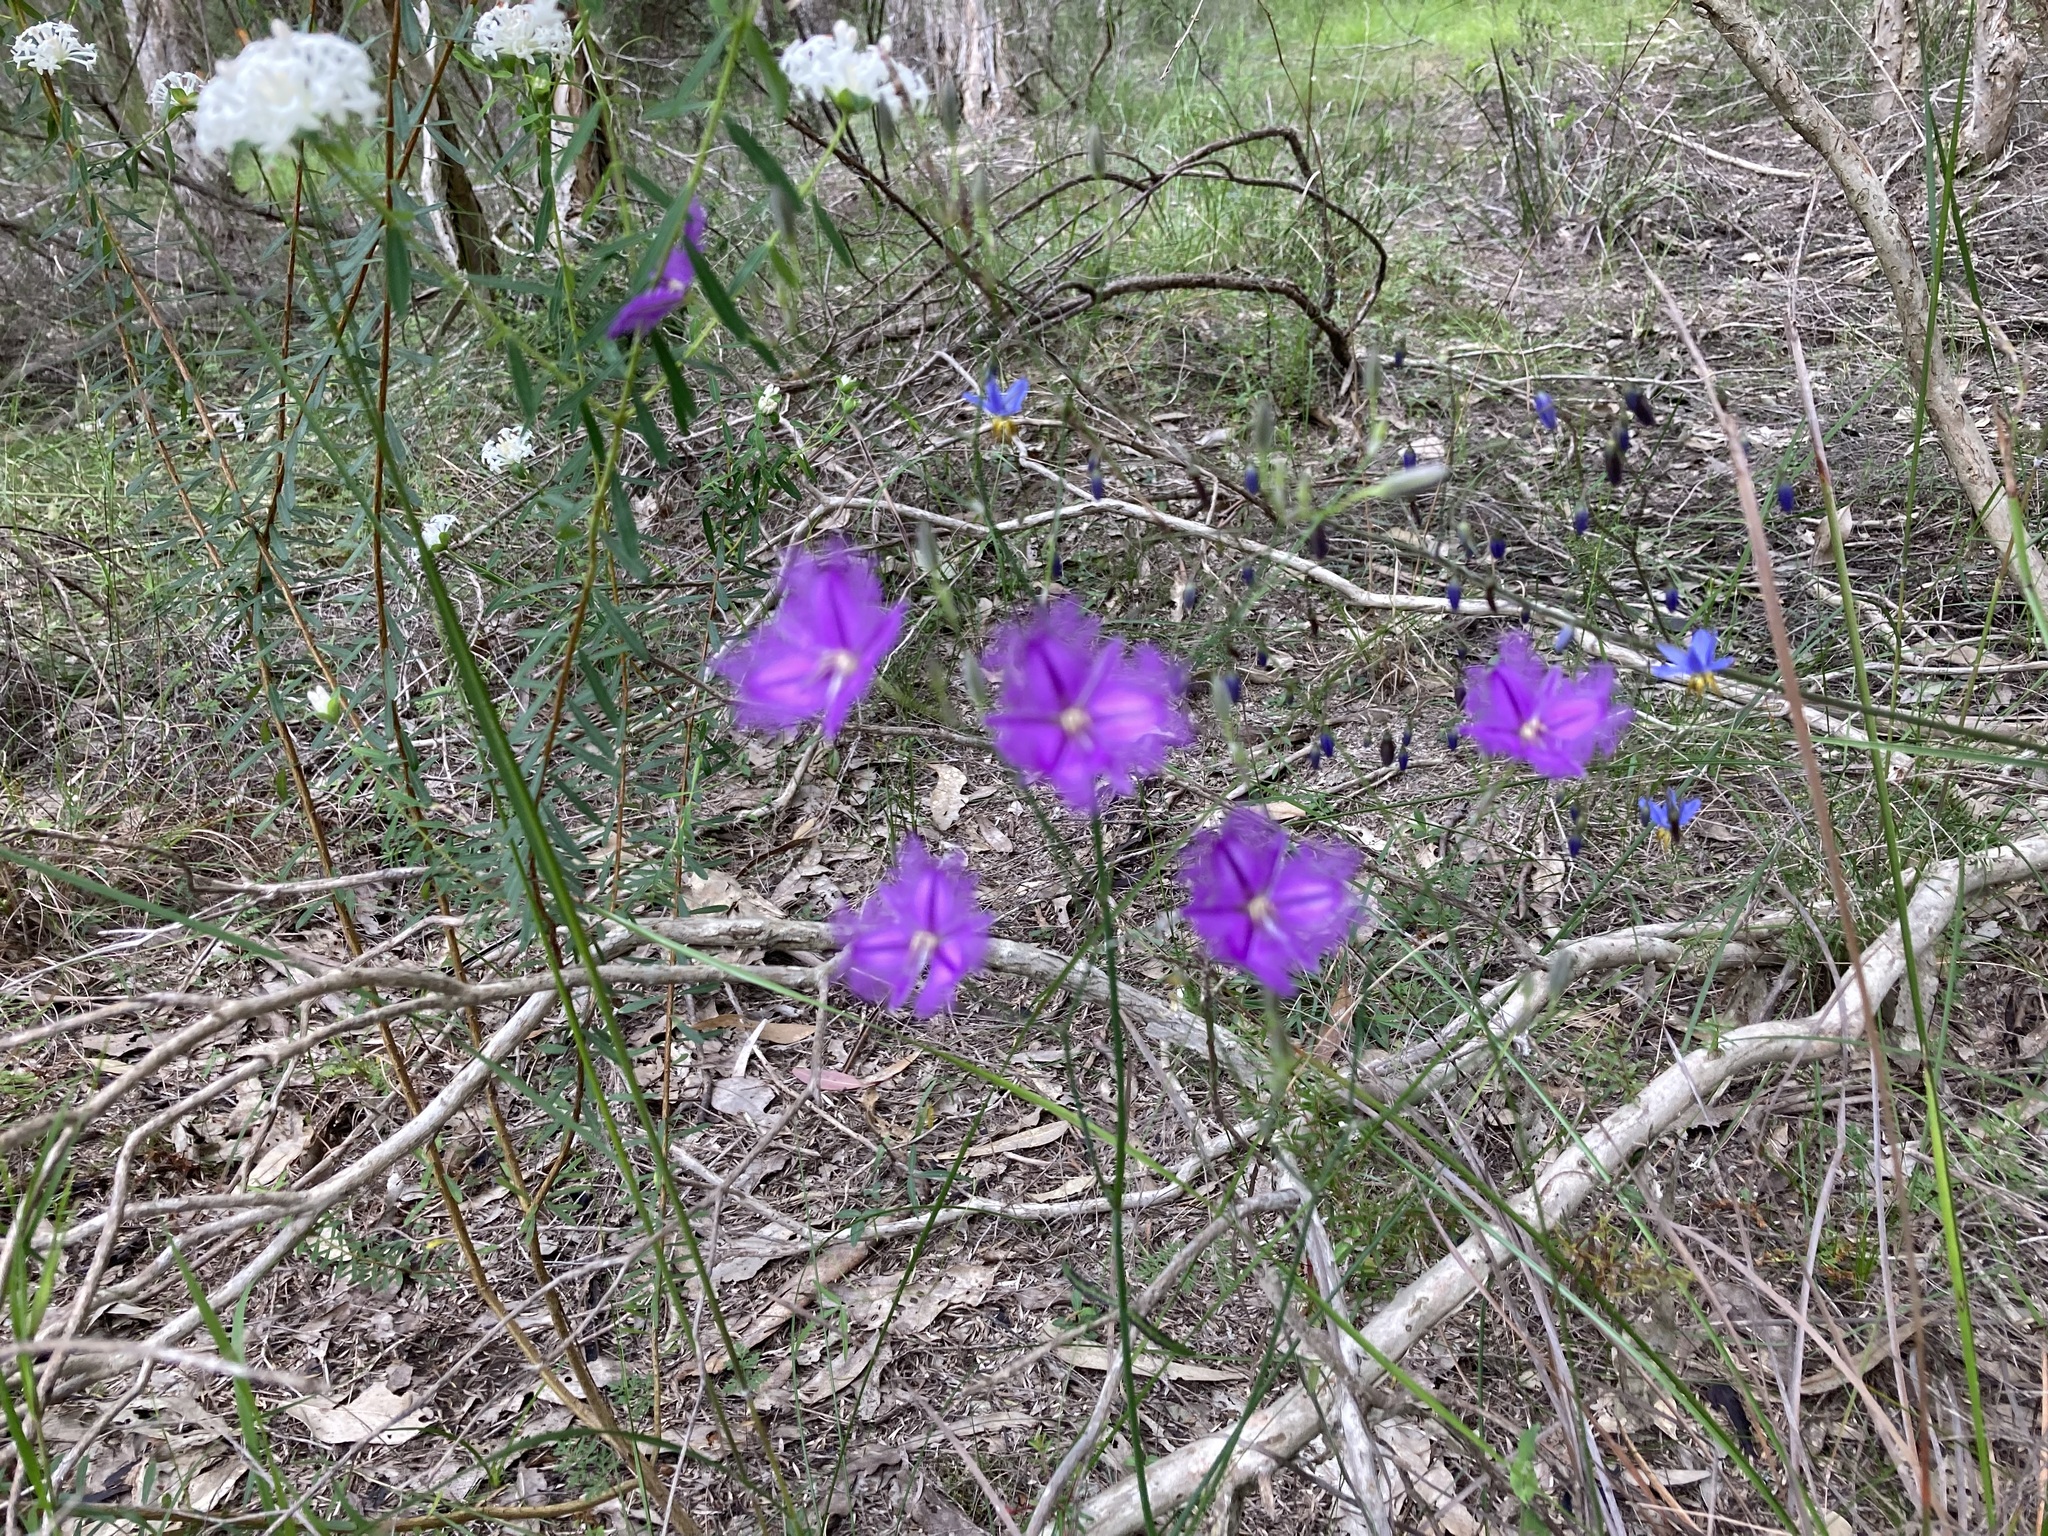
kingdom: Plantae
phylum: Tracheophyta
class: Liliopsida
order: Asparagales
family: Asparagaceae
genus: Thysanotus
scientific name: Thysanotus tuberosus
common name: Common fringed-lily
